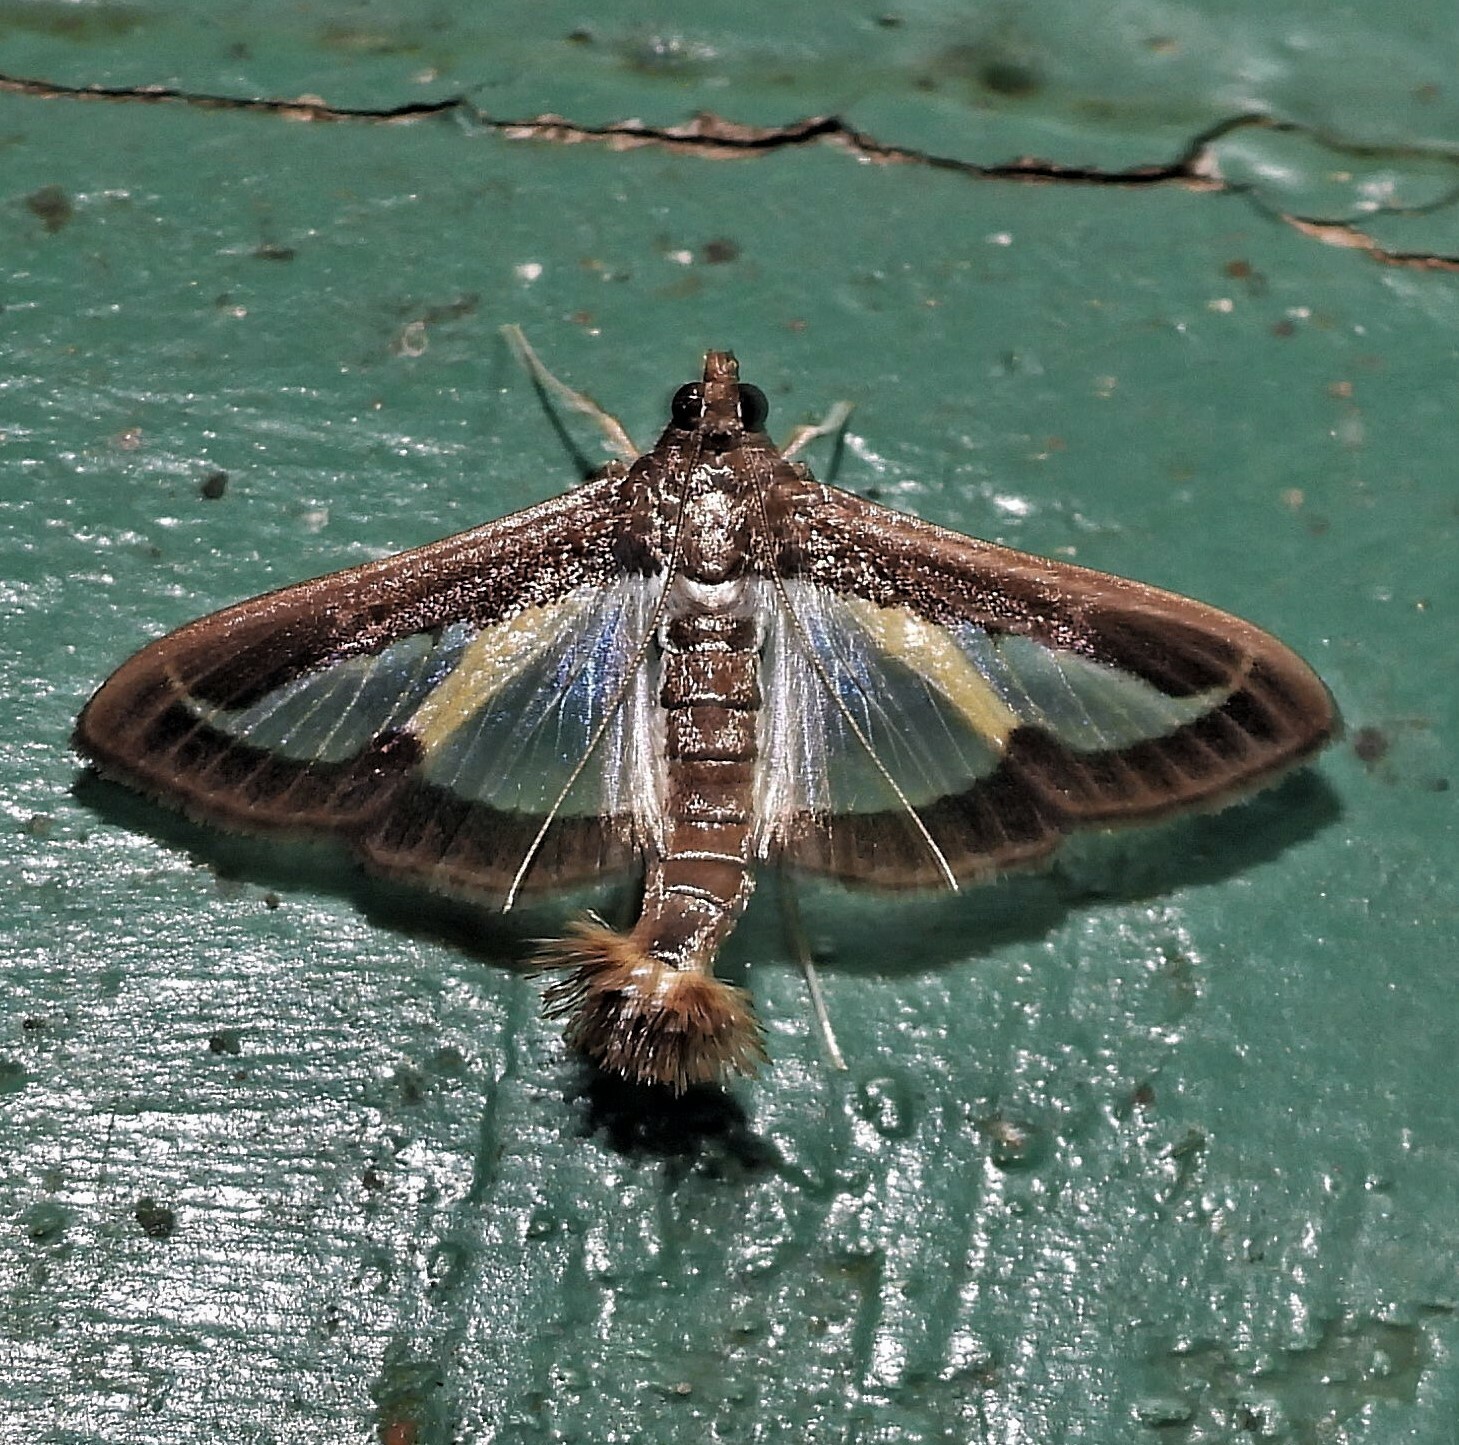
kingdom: Animalia
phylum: Arthropoda
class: Insecta
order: Lepidoptera
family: Crambidae
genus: Diaphania
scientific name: Diaphania elegans
